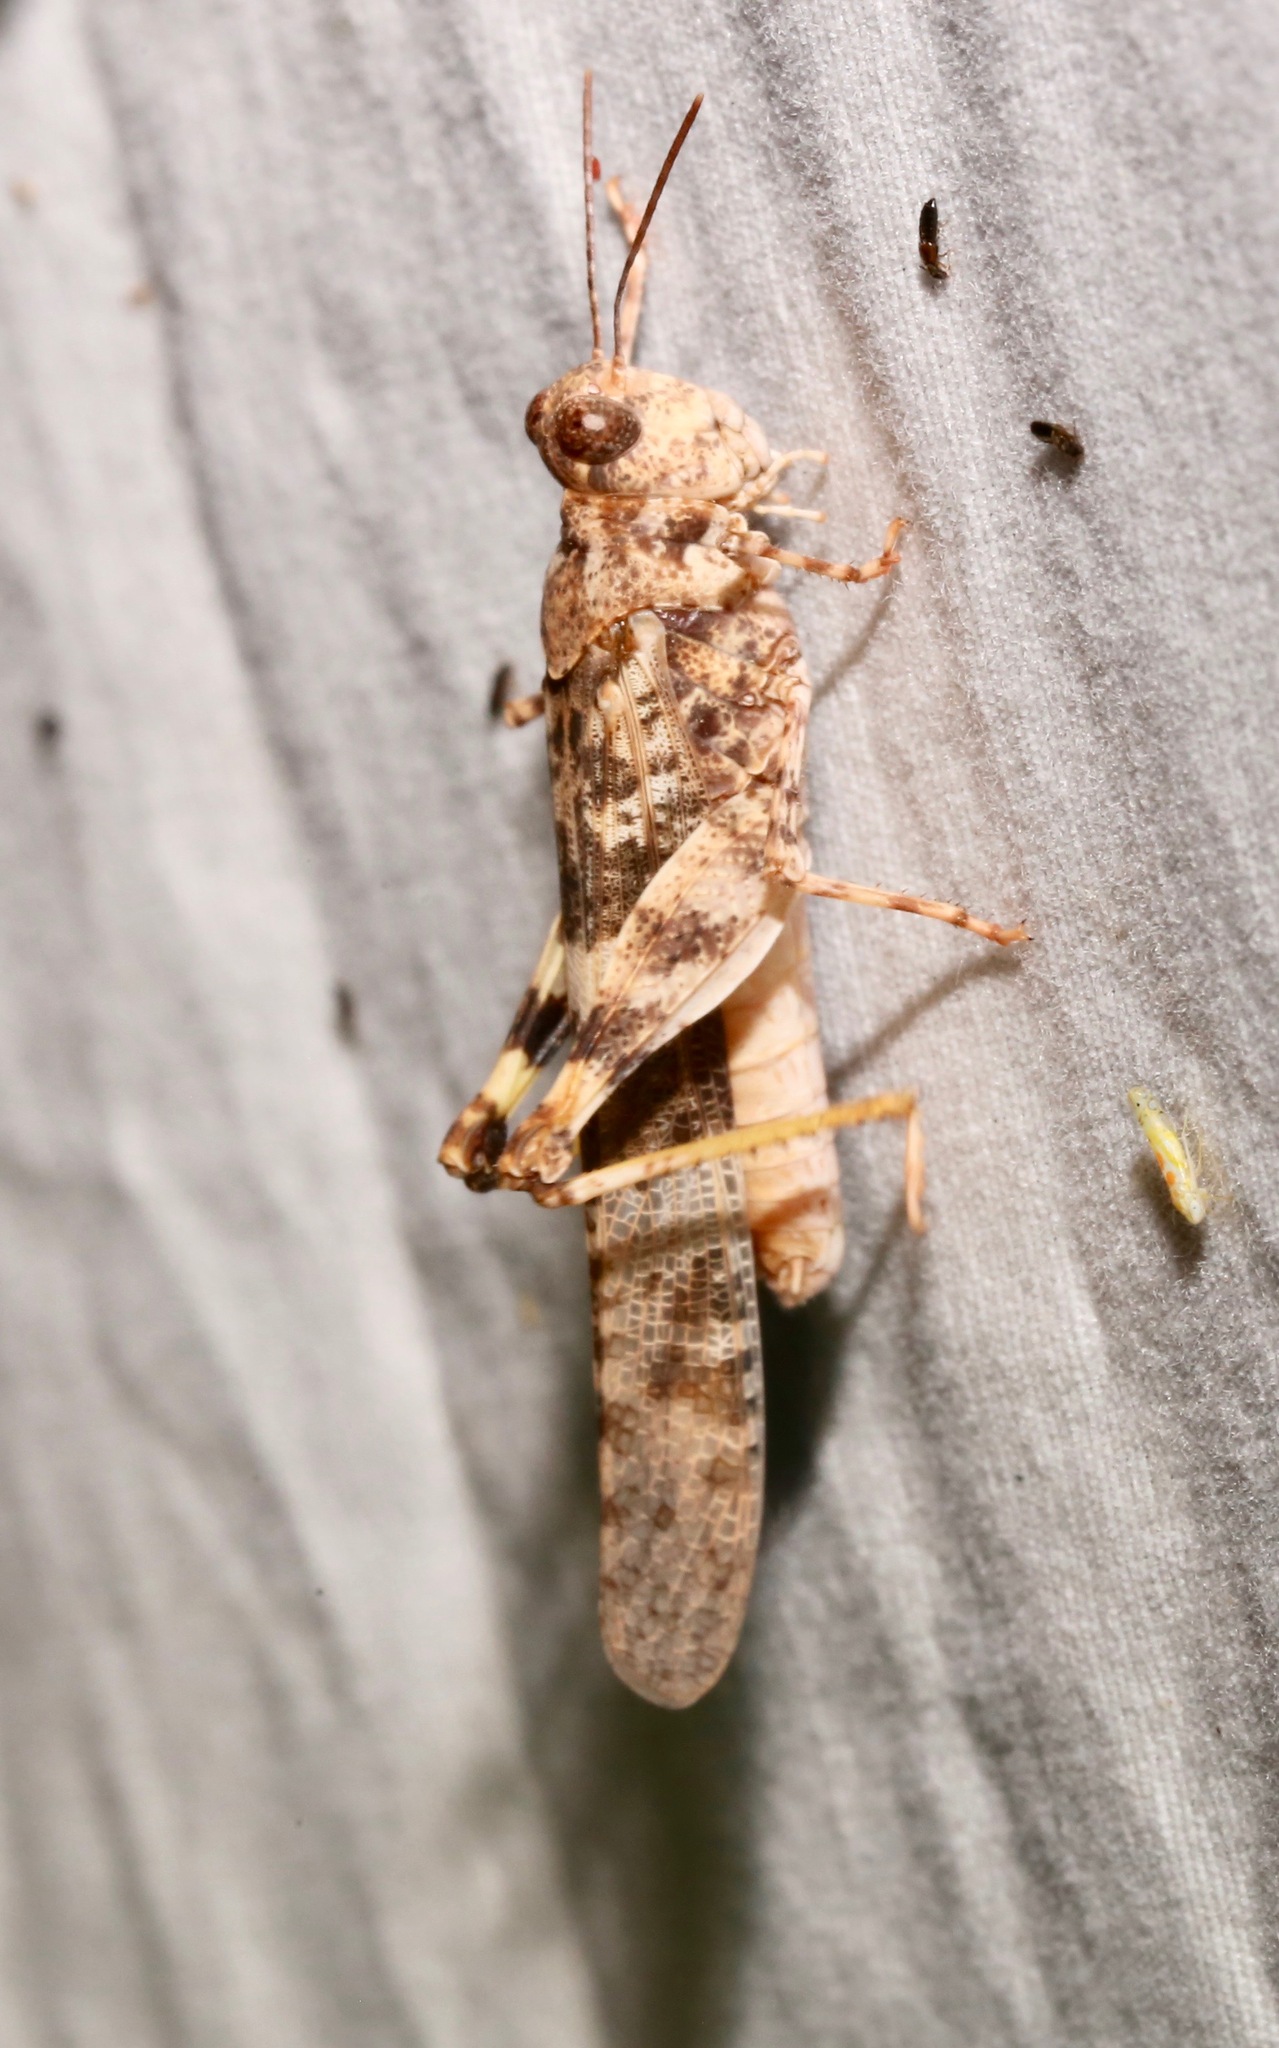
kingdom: Animalia
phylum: Arthropoda
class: Insecta
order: Orthoptera
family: Acrididae
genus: Trimerotropis
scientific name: Trimerotropis pallidipennis
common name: Pallid-winged grasshopper
